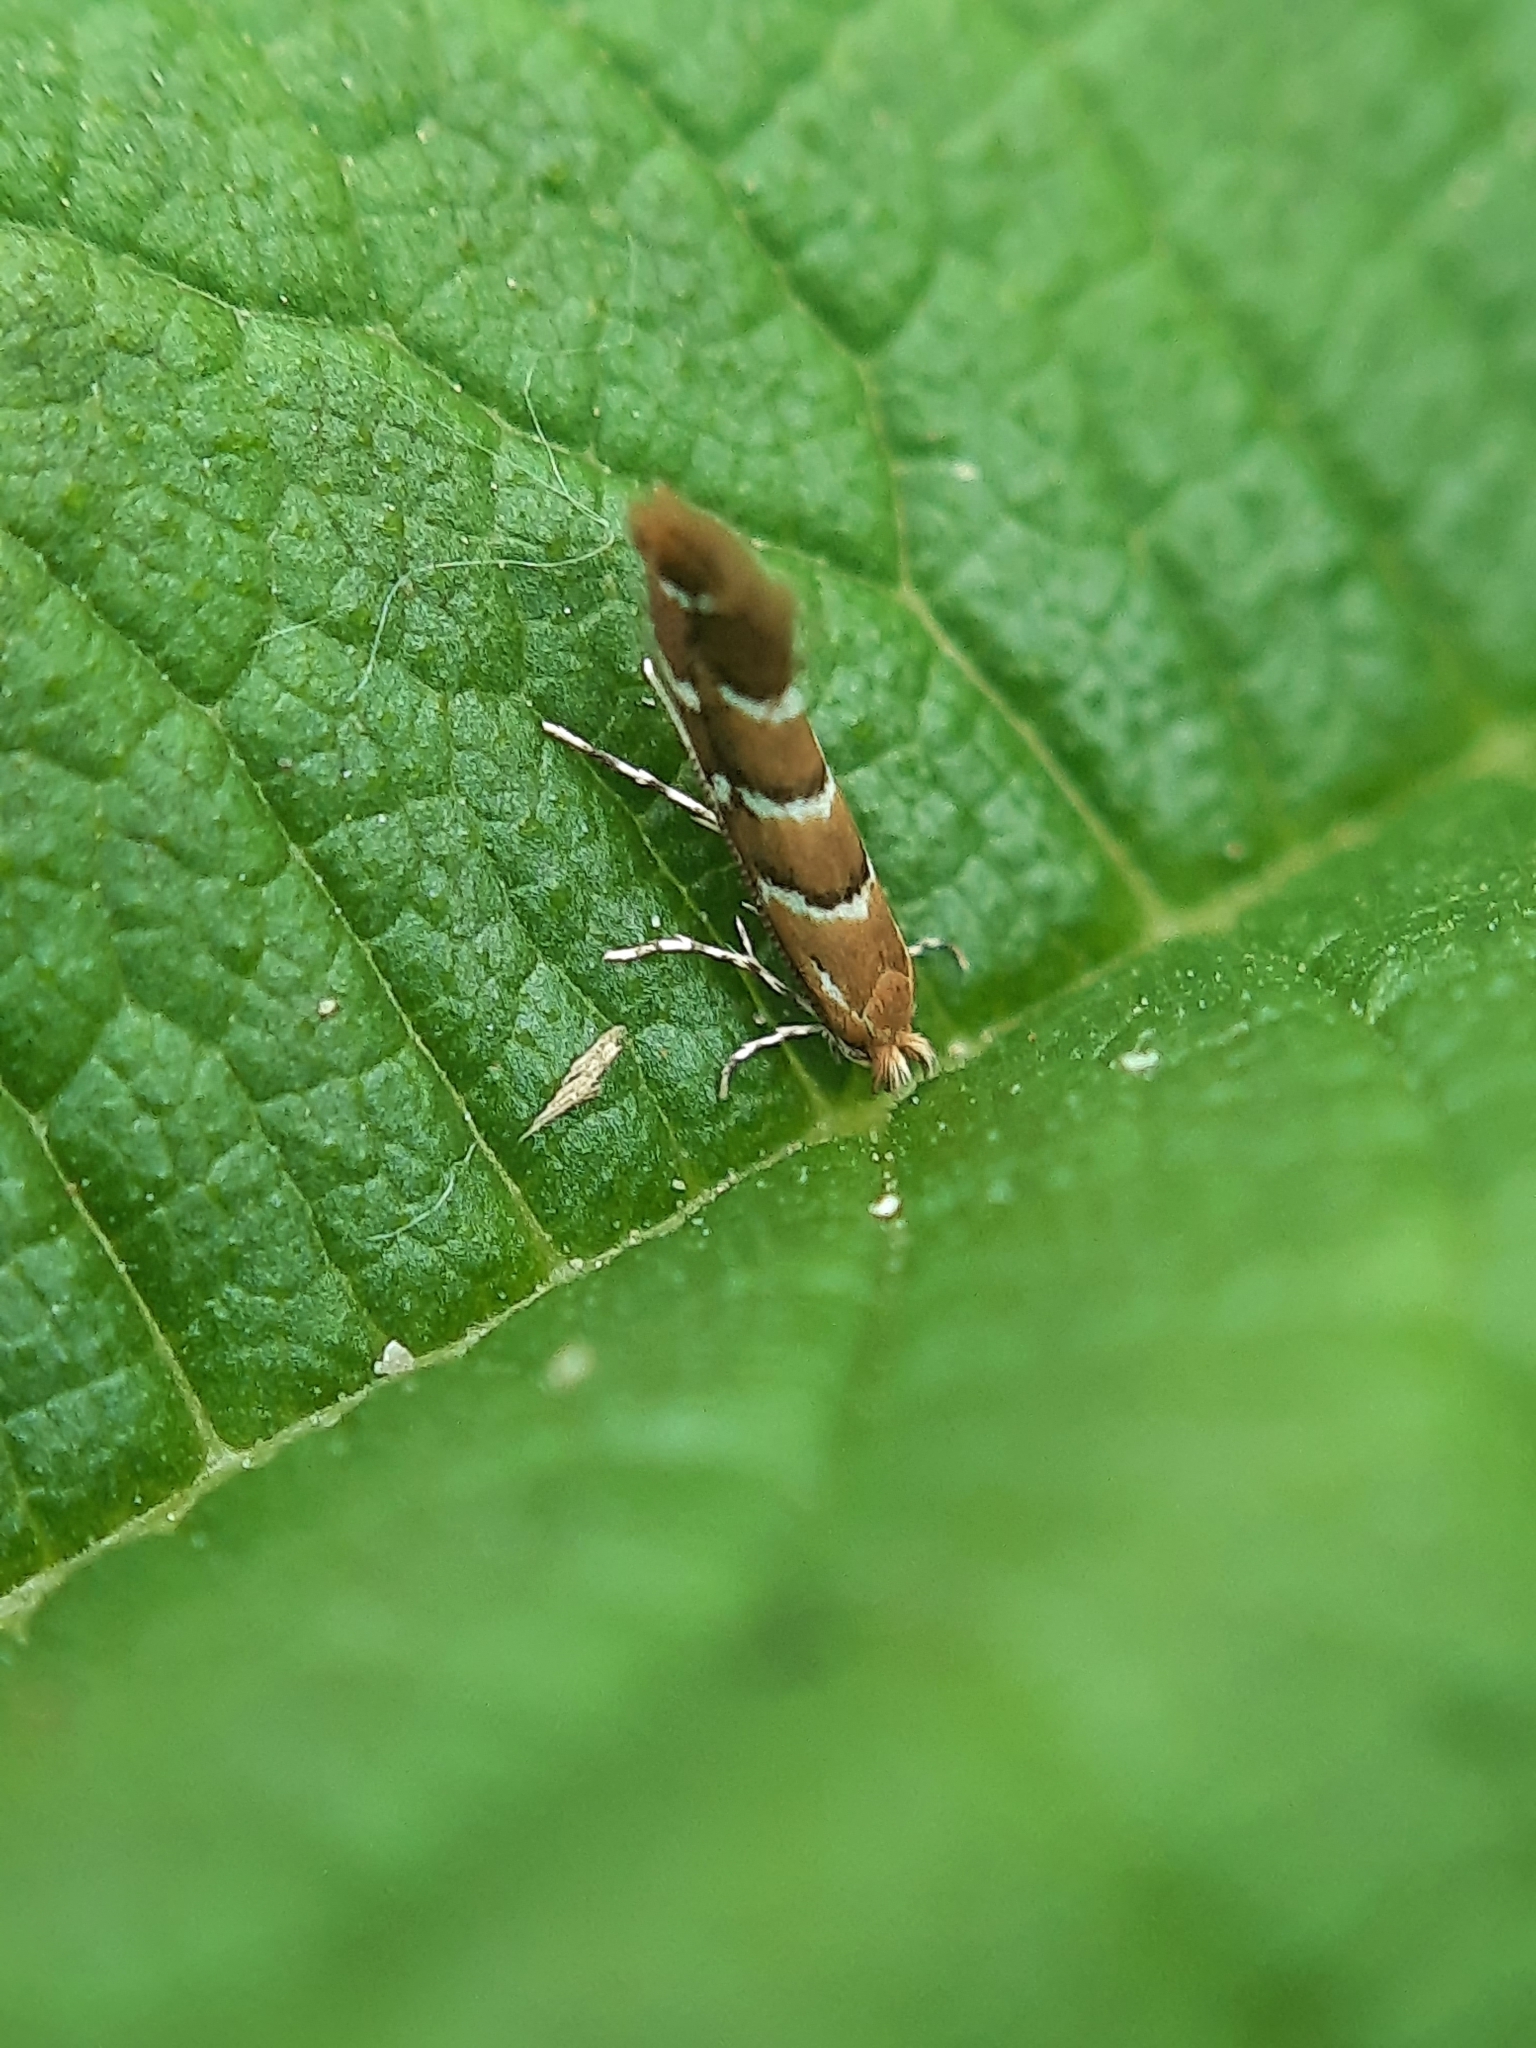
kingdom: Animalia
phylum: Arthropoda
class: Insecta
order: Lepidoptera
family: Gracillariidae
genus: Cameraria
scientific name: Cameraria ohridella
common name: Horse-chestnut leaf-miner
